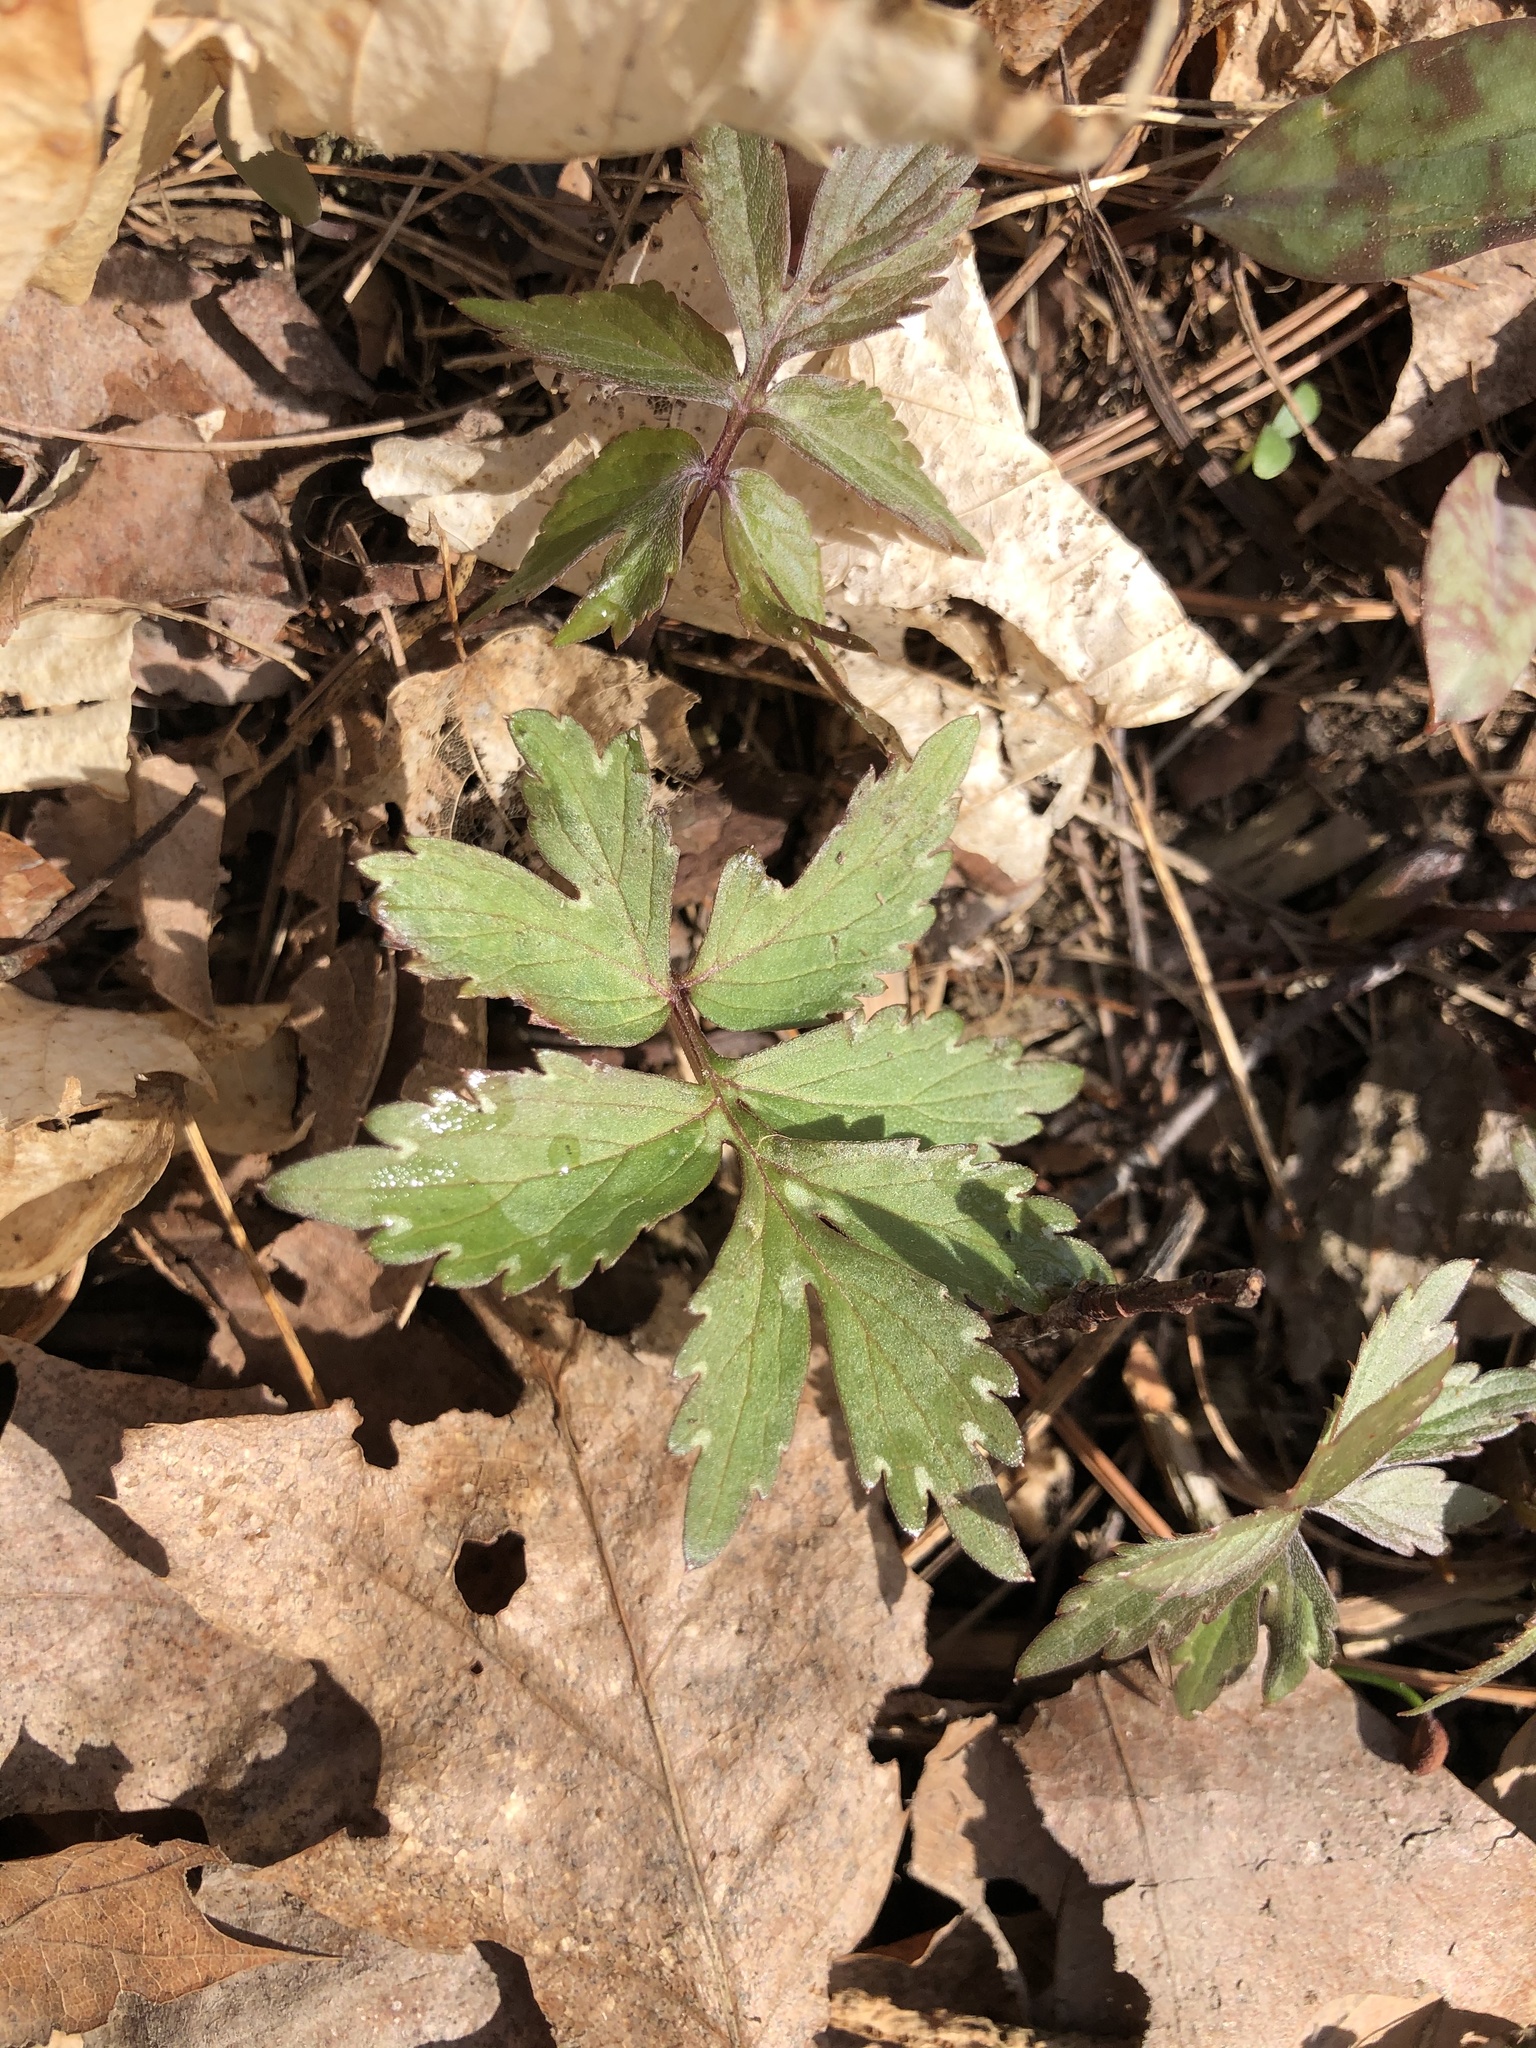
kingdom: Plantae
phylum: Tracheophyta
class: Magnoliopsida
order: Boraginales
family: Hydrophyllaceae
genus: Hydrophyllum
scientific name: Hydrophyllum virginianum
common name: Virginia waterleaf
